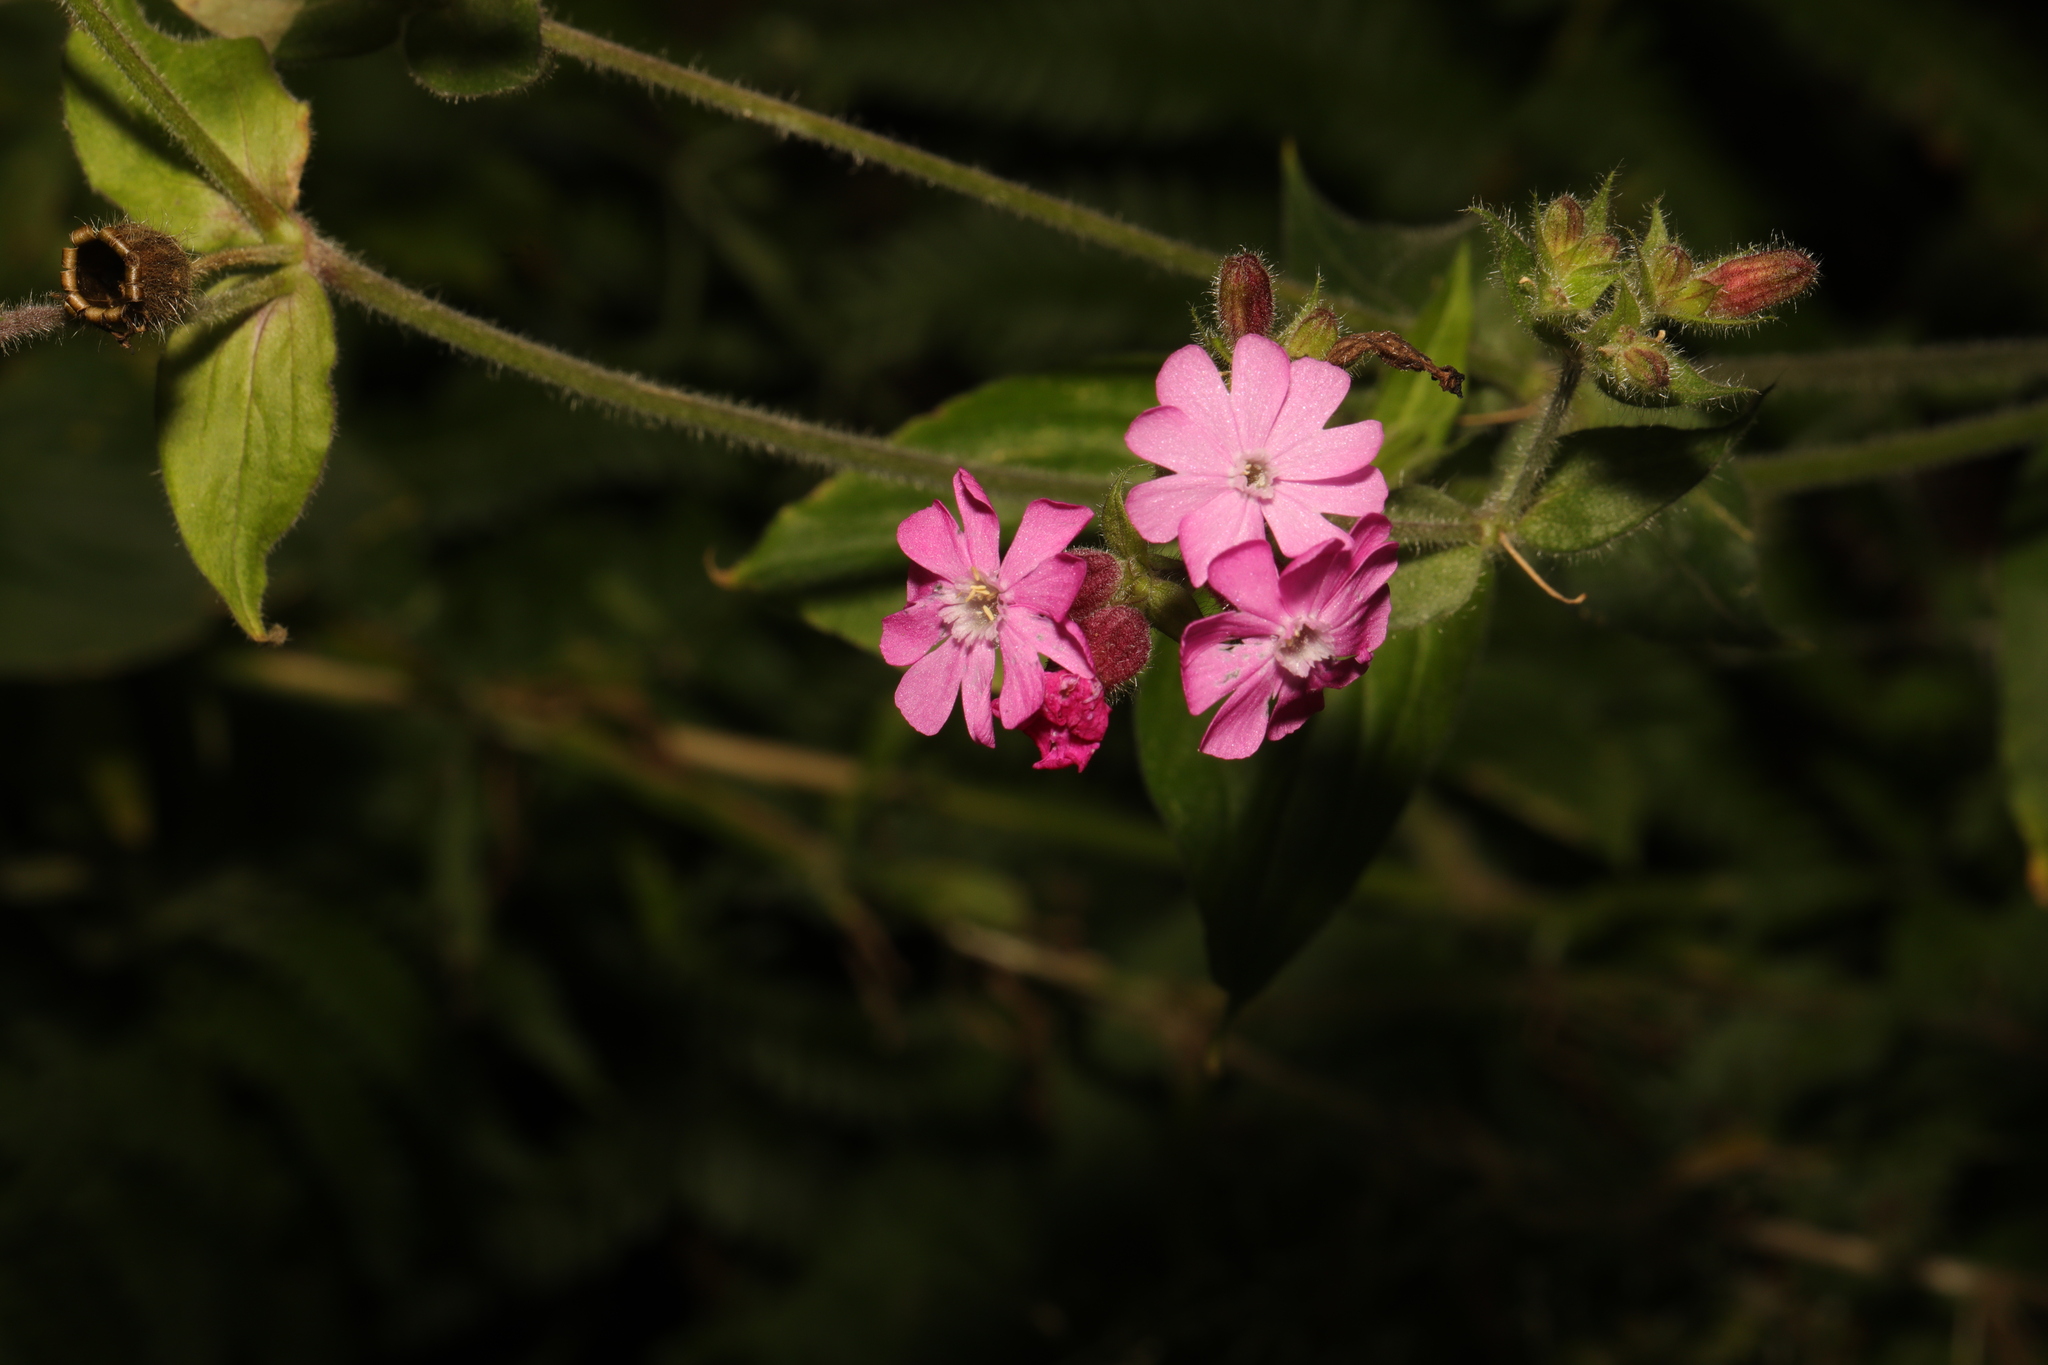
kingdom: Plantae
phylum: Tracheophyta
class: Magnoliopsida
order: Caryophyllales
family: Caryophyllaceae
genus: Silene
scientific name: Silene dioica
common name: Red campion
